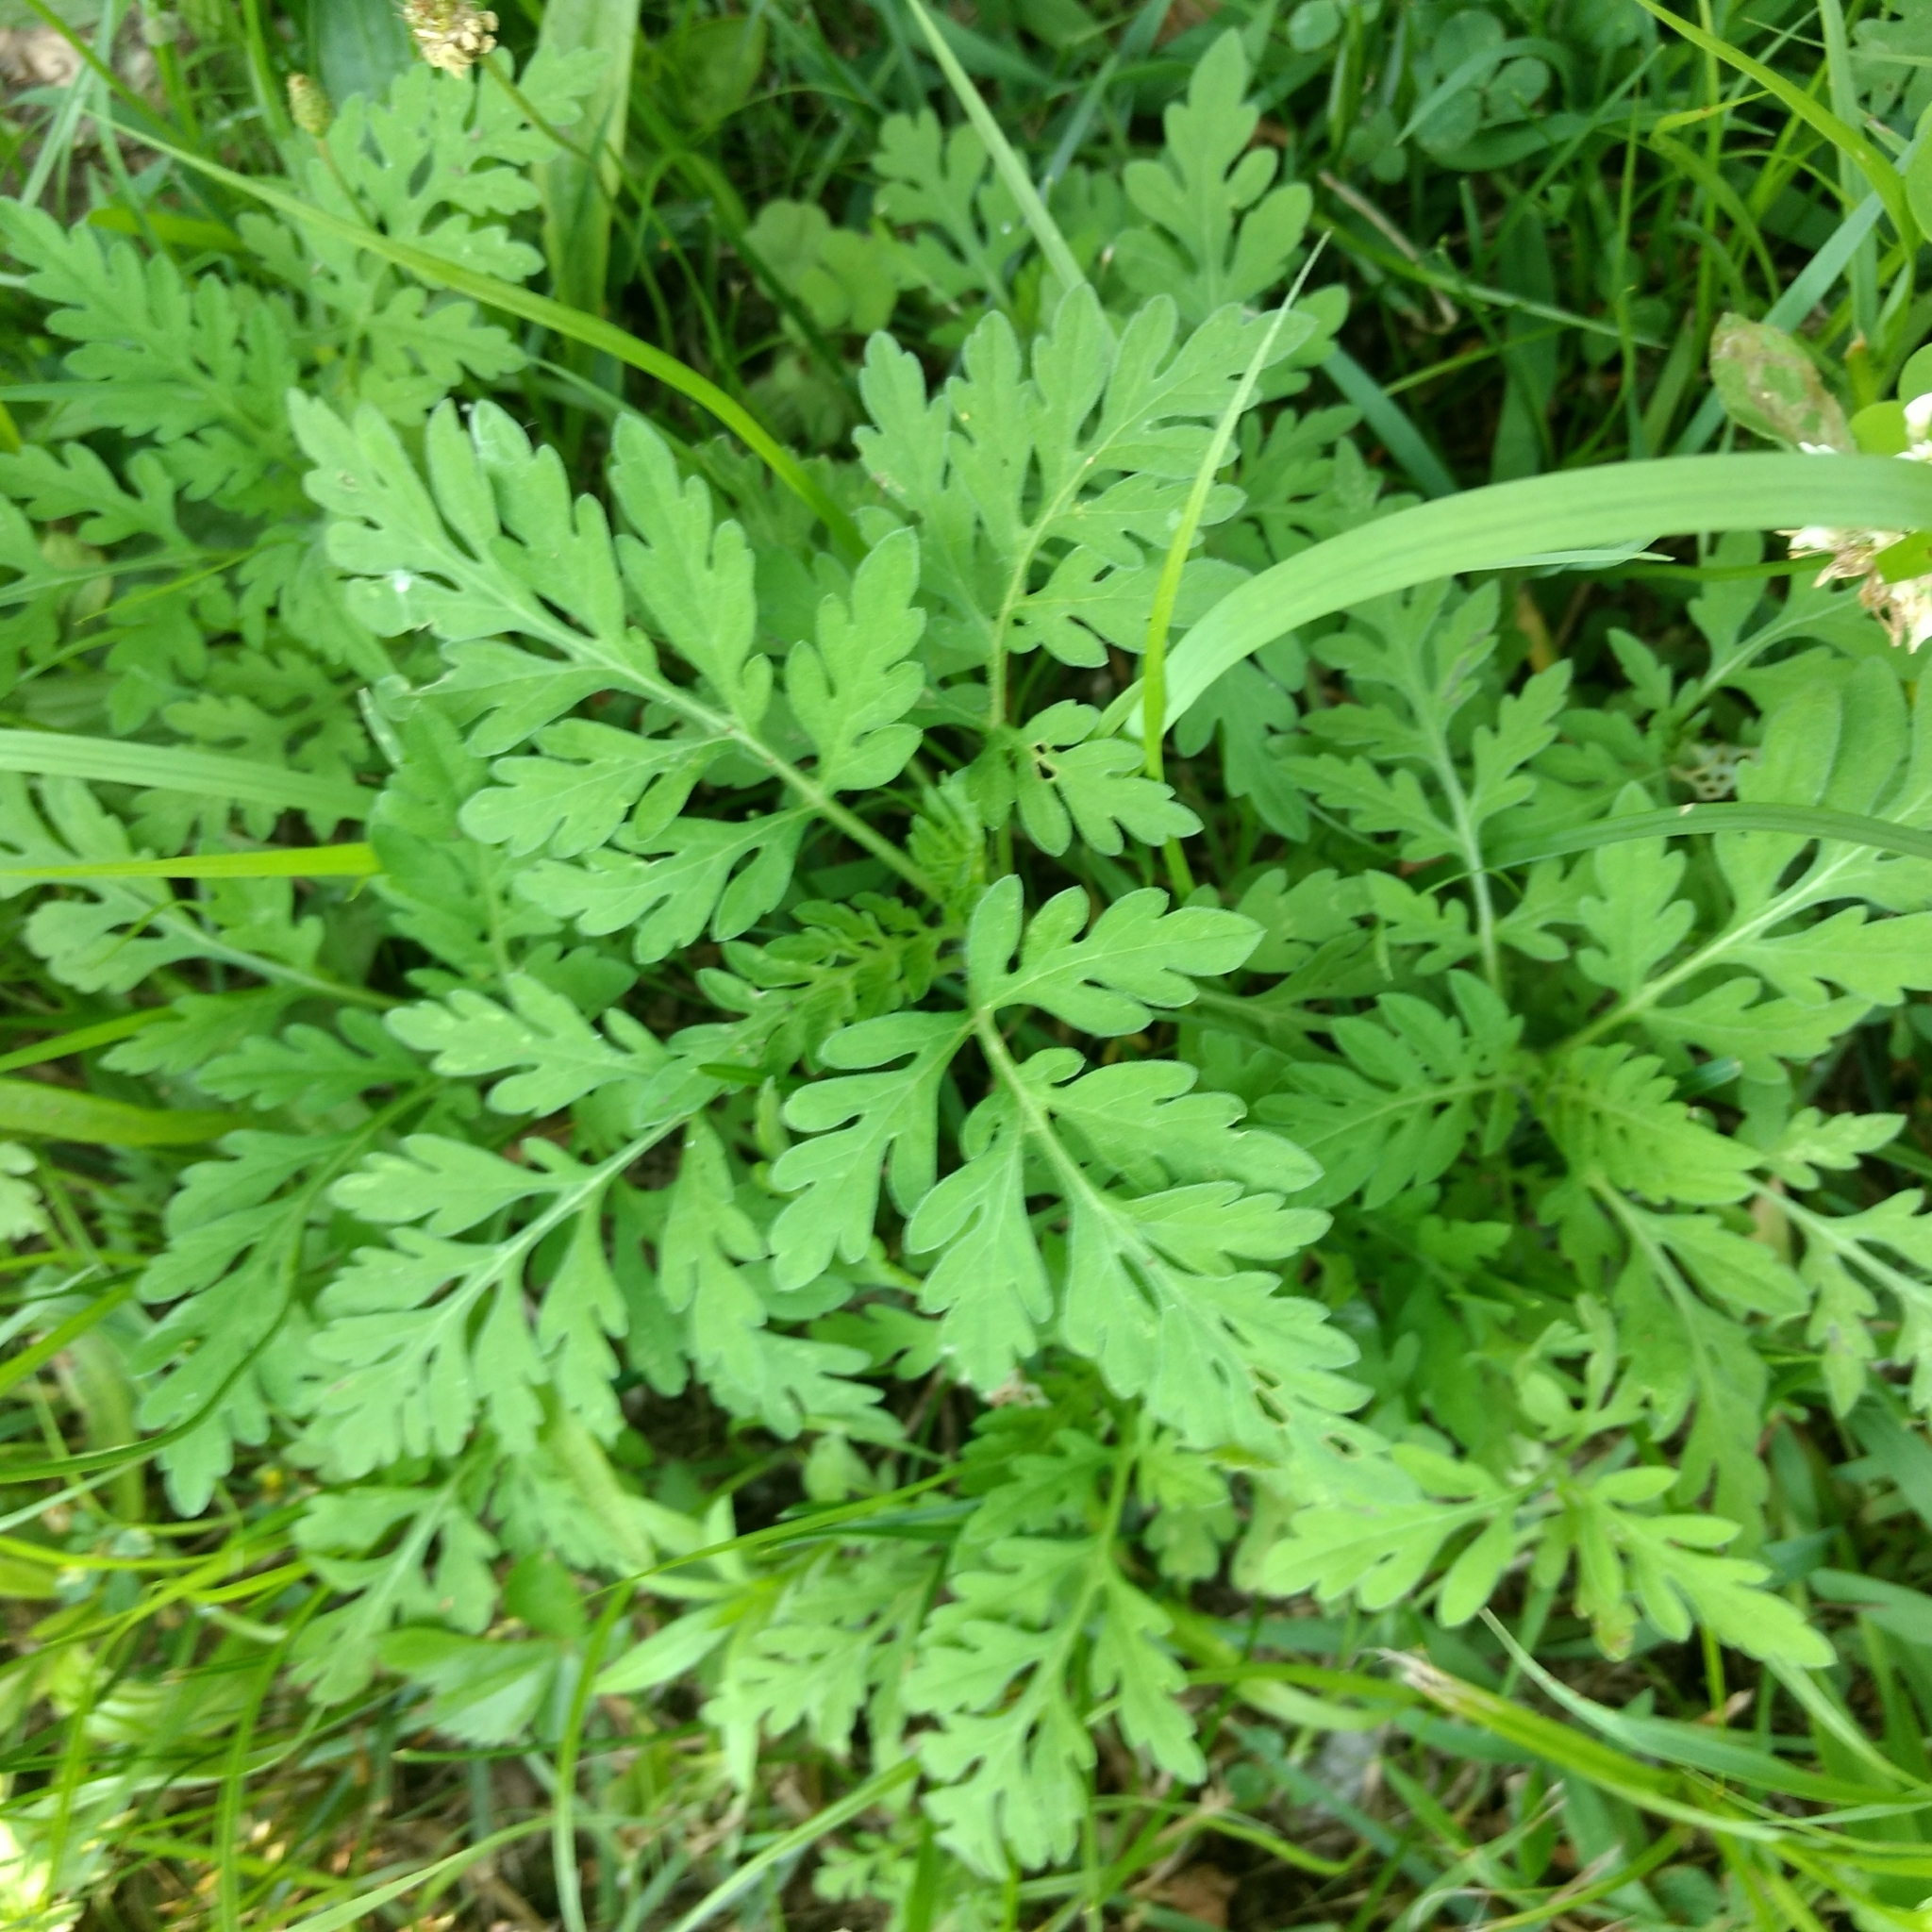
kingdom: Plantae
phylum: Tracheophyta
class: Magnoliopsida
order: Asterales
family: Asteraceae
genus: Ambrosia
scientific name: Ambrosia artemisiifolia
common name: Annual ragweed
